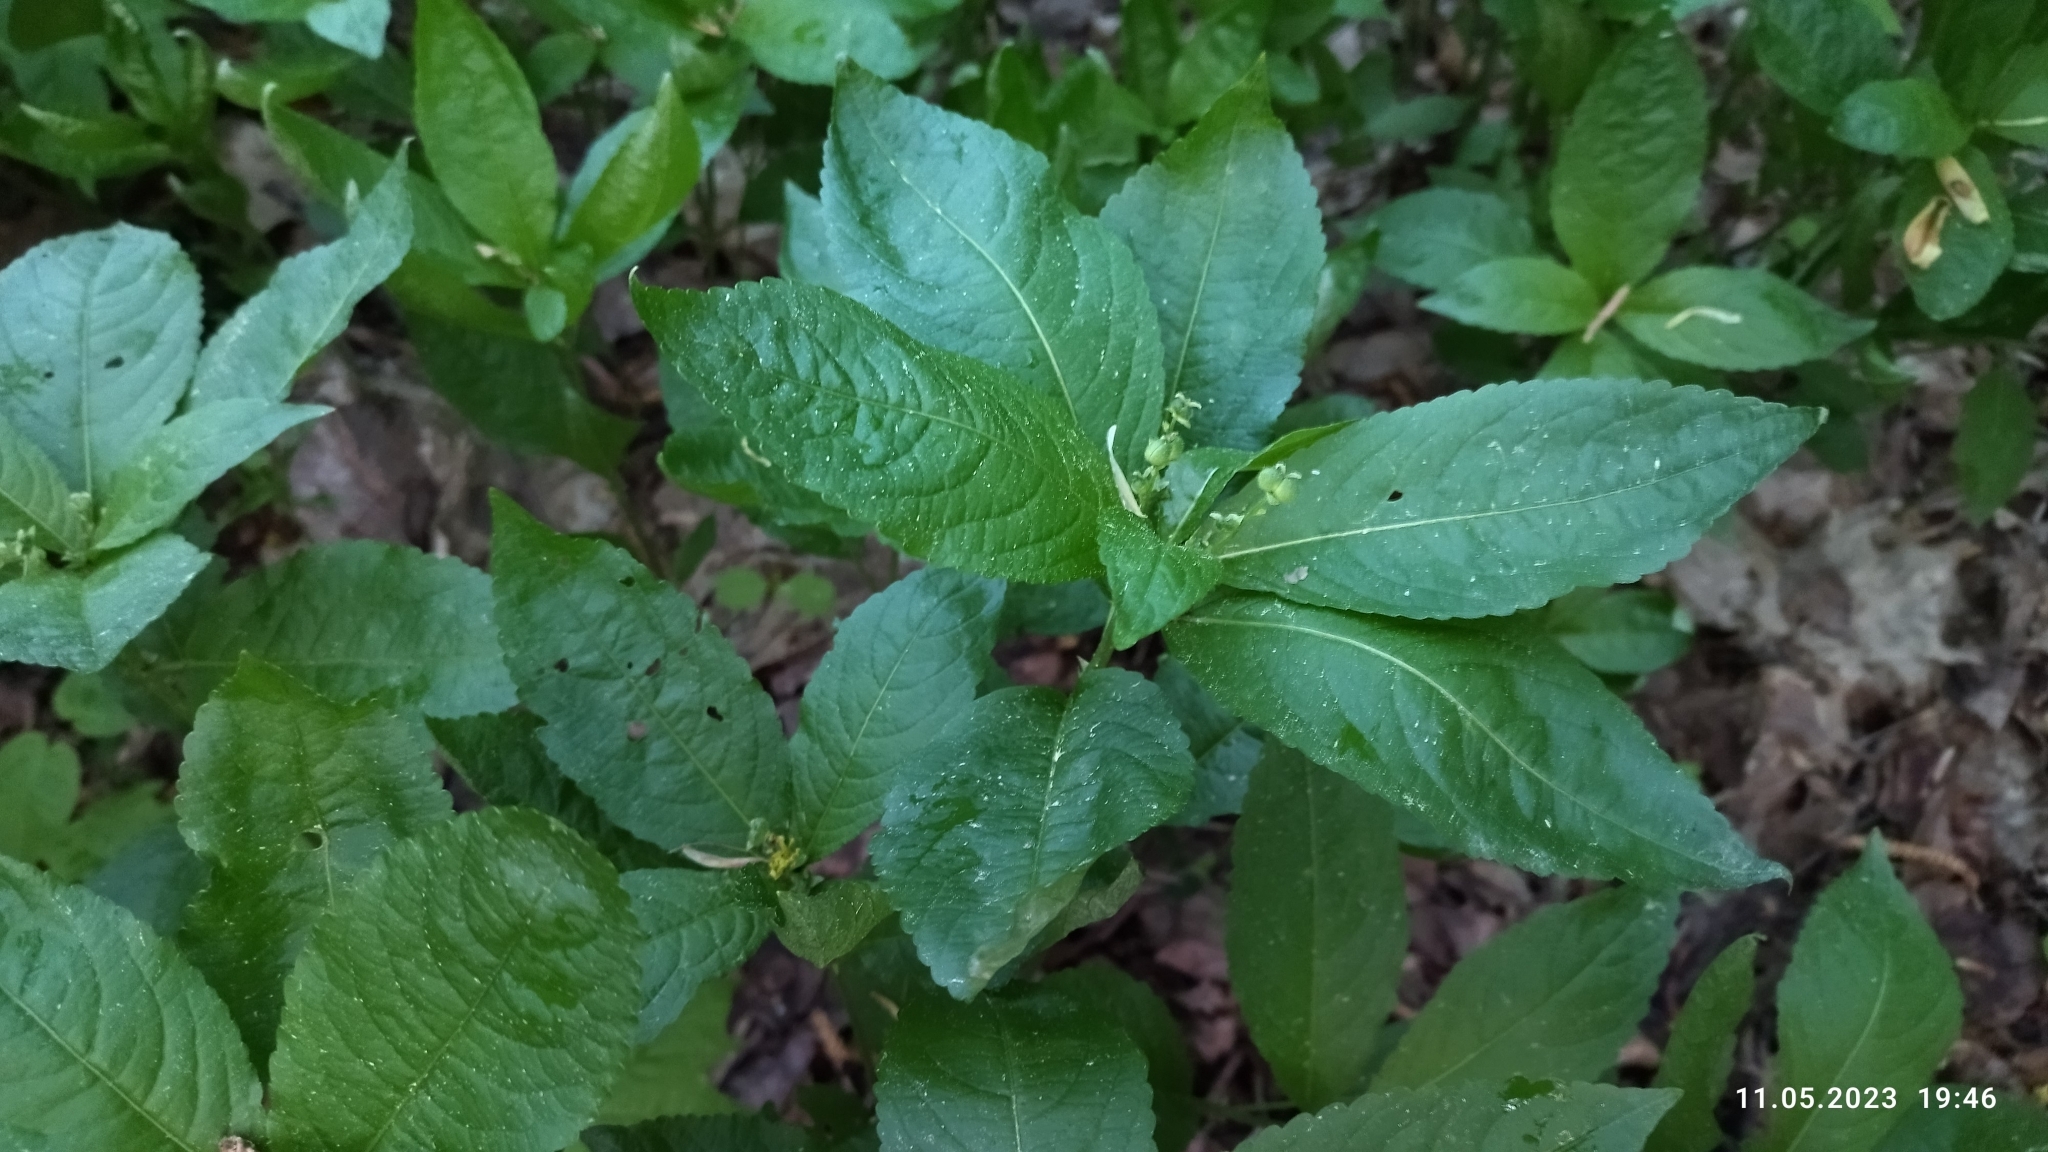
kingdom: Plantae
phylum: Tracheophyta
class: Magnoliopsida
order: Malpighiales
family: Euphorbiaceae
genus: Mercurialis
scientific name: Mercurialis perennis
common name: Dog mercury
